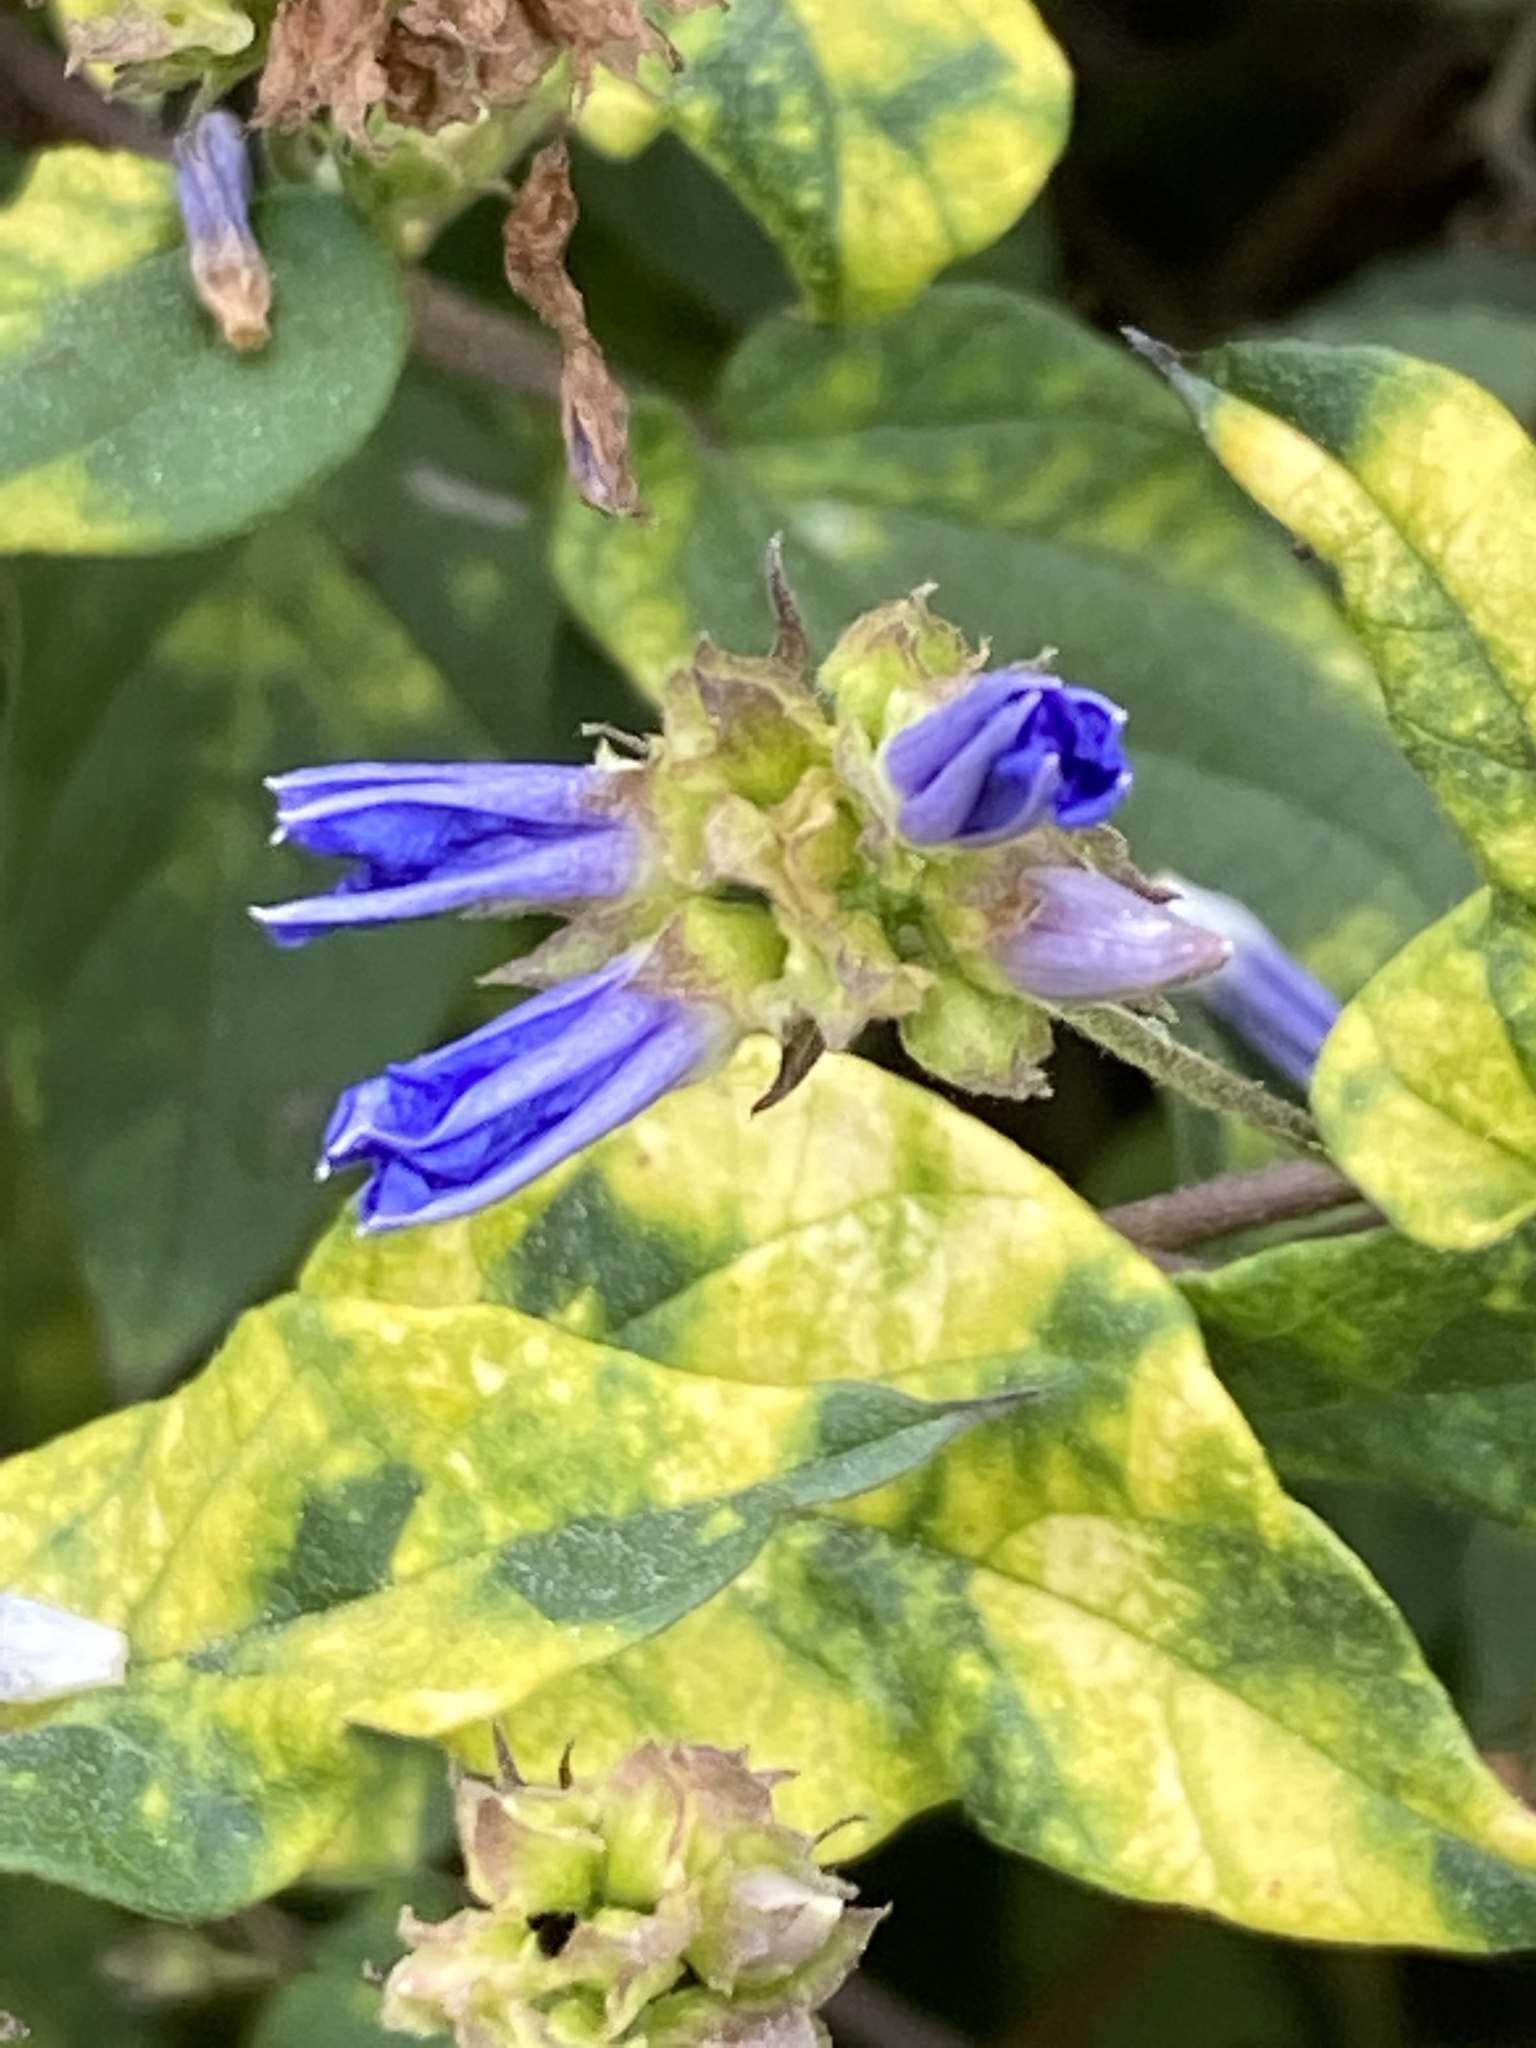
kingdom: Plantae
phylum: Tracheophyta
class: Magnoliopsida
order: Solanales
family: Convolvulaceae
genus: Jacquemontia
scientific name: Jacquemontia pentanthos
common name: Skyblue clustervine
